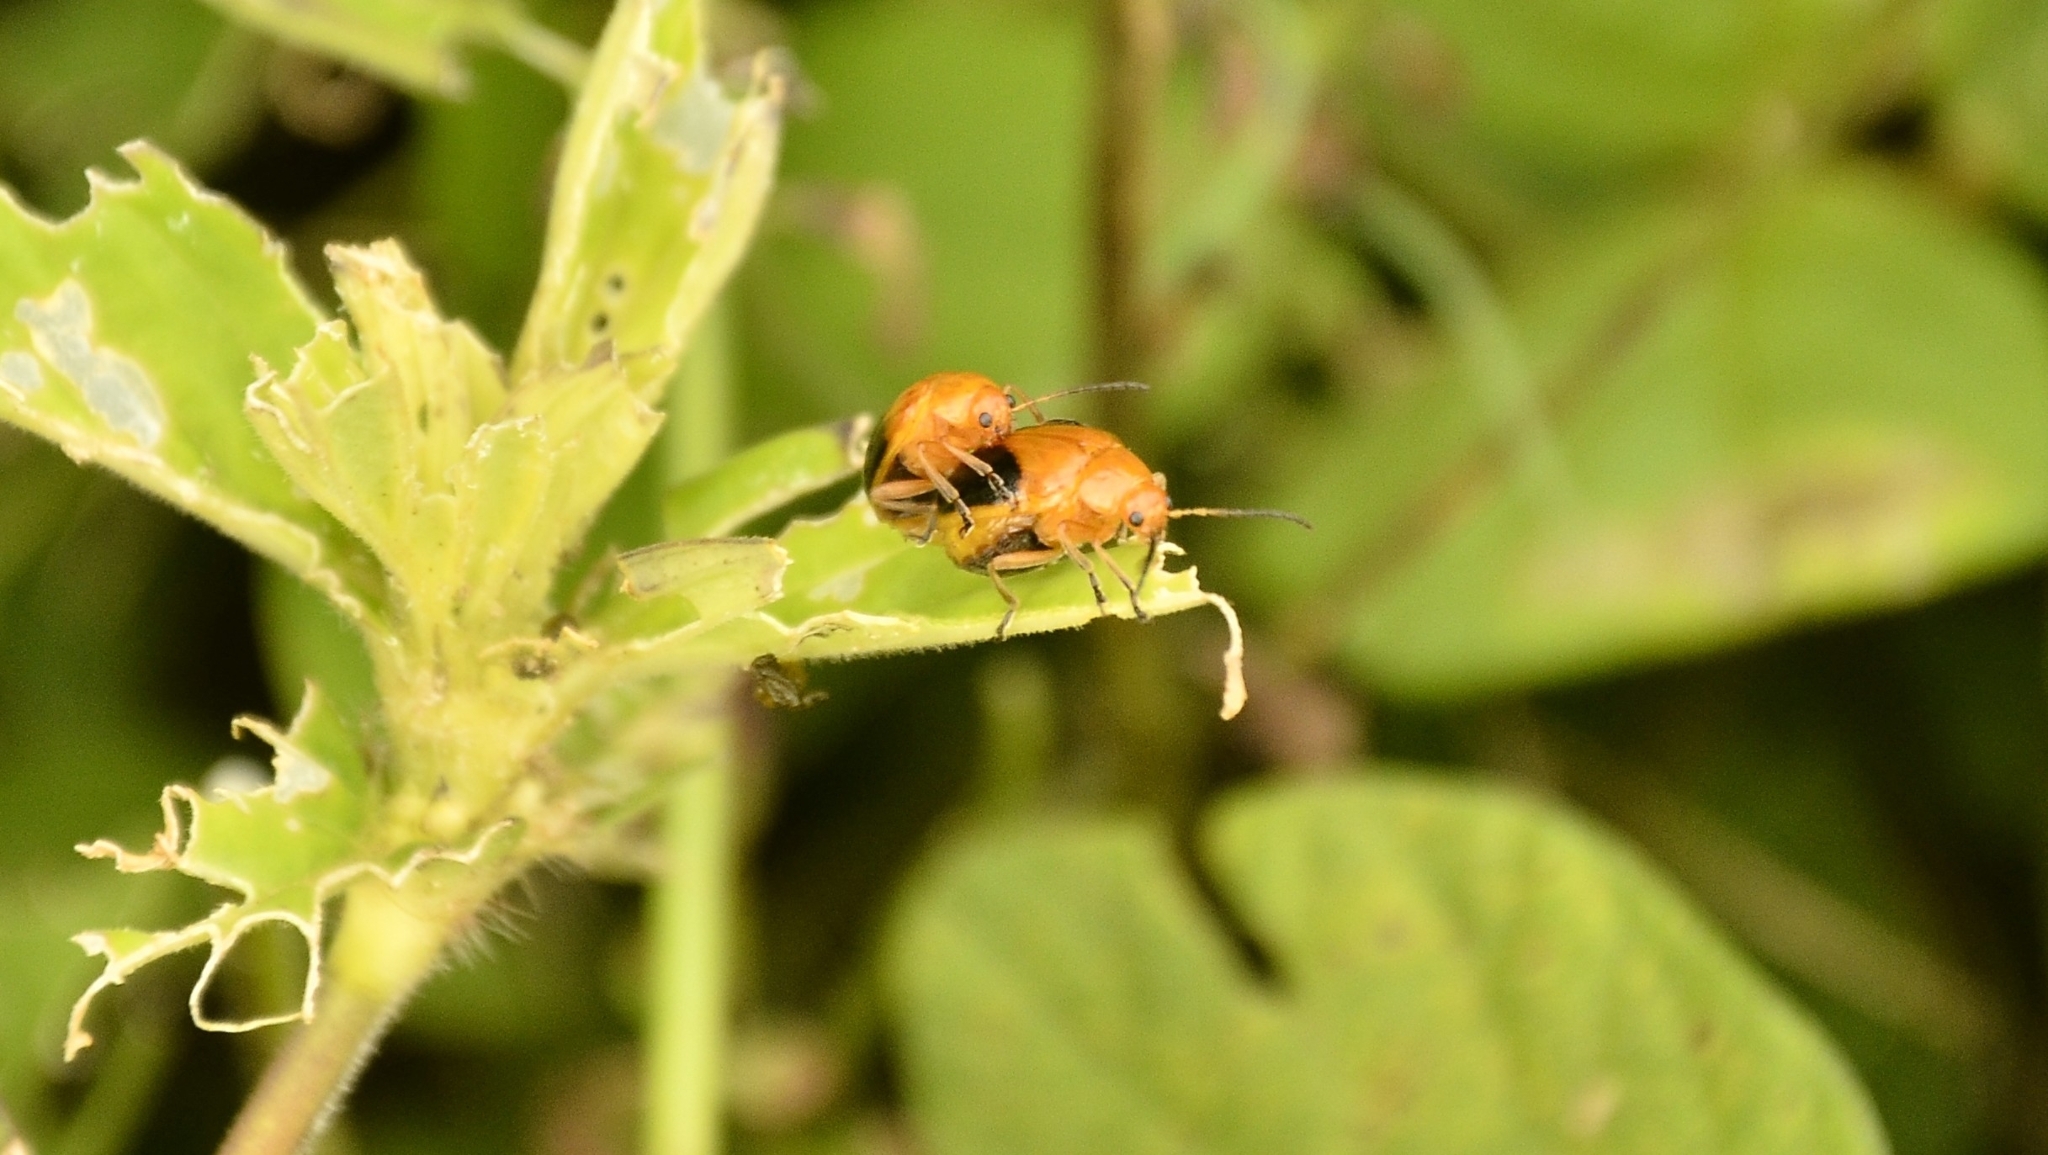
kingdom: Animalia
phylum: Arthropoda
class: Insecta
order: Coleoptera
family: Chrysomelidae
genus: Oides
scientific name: Oides affinis
